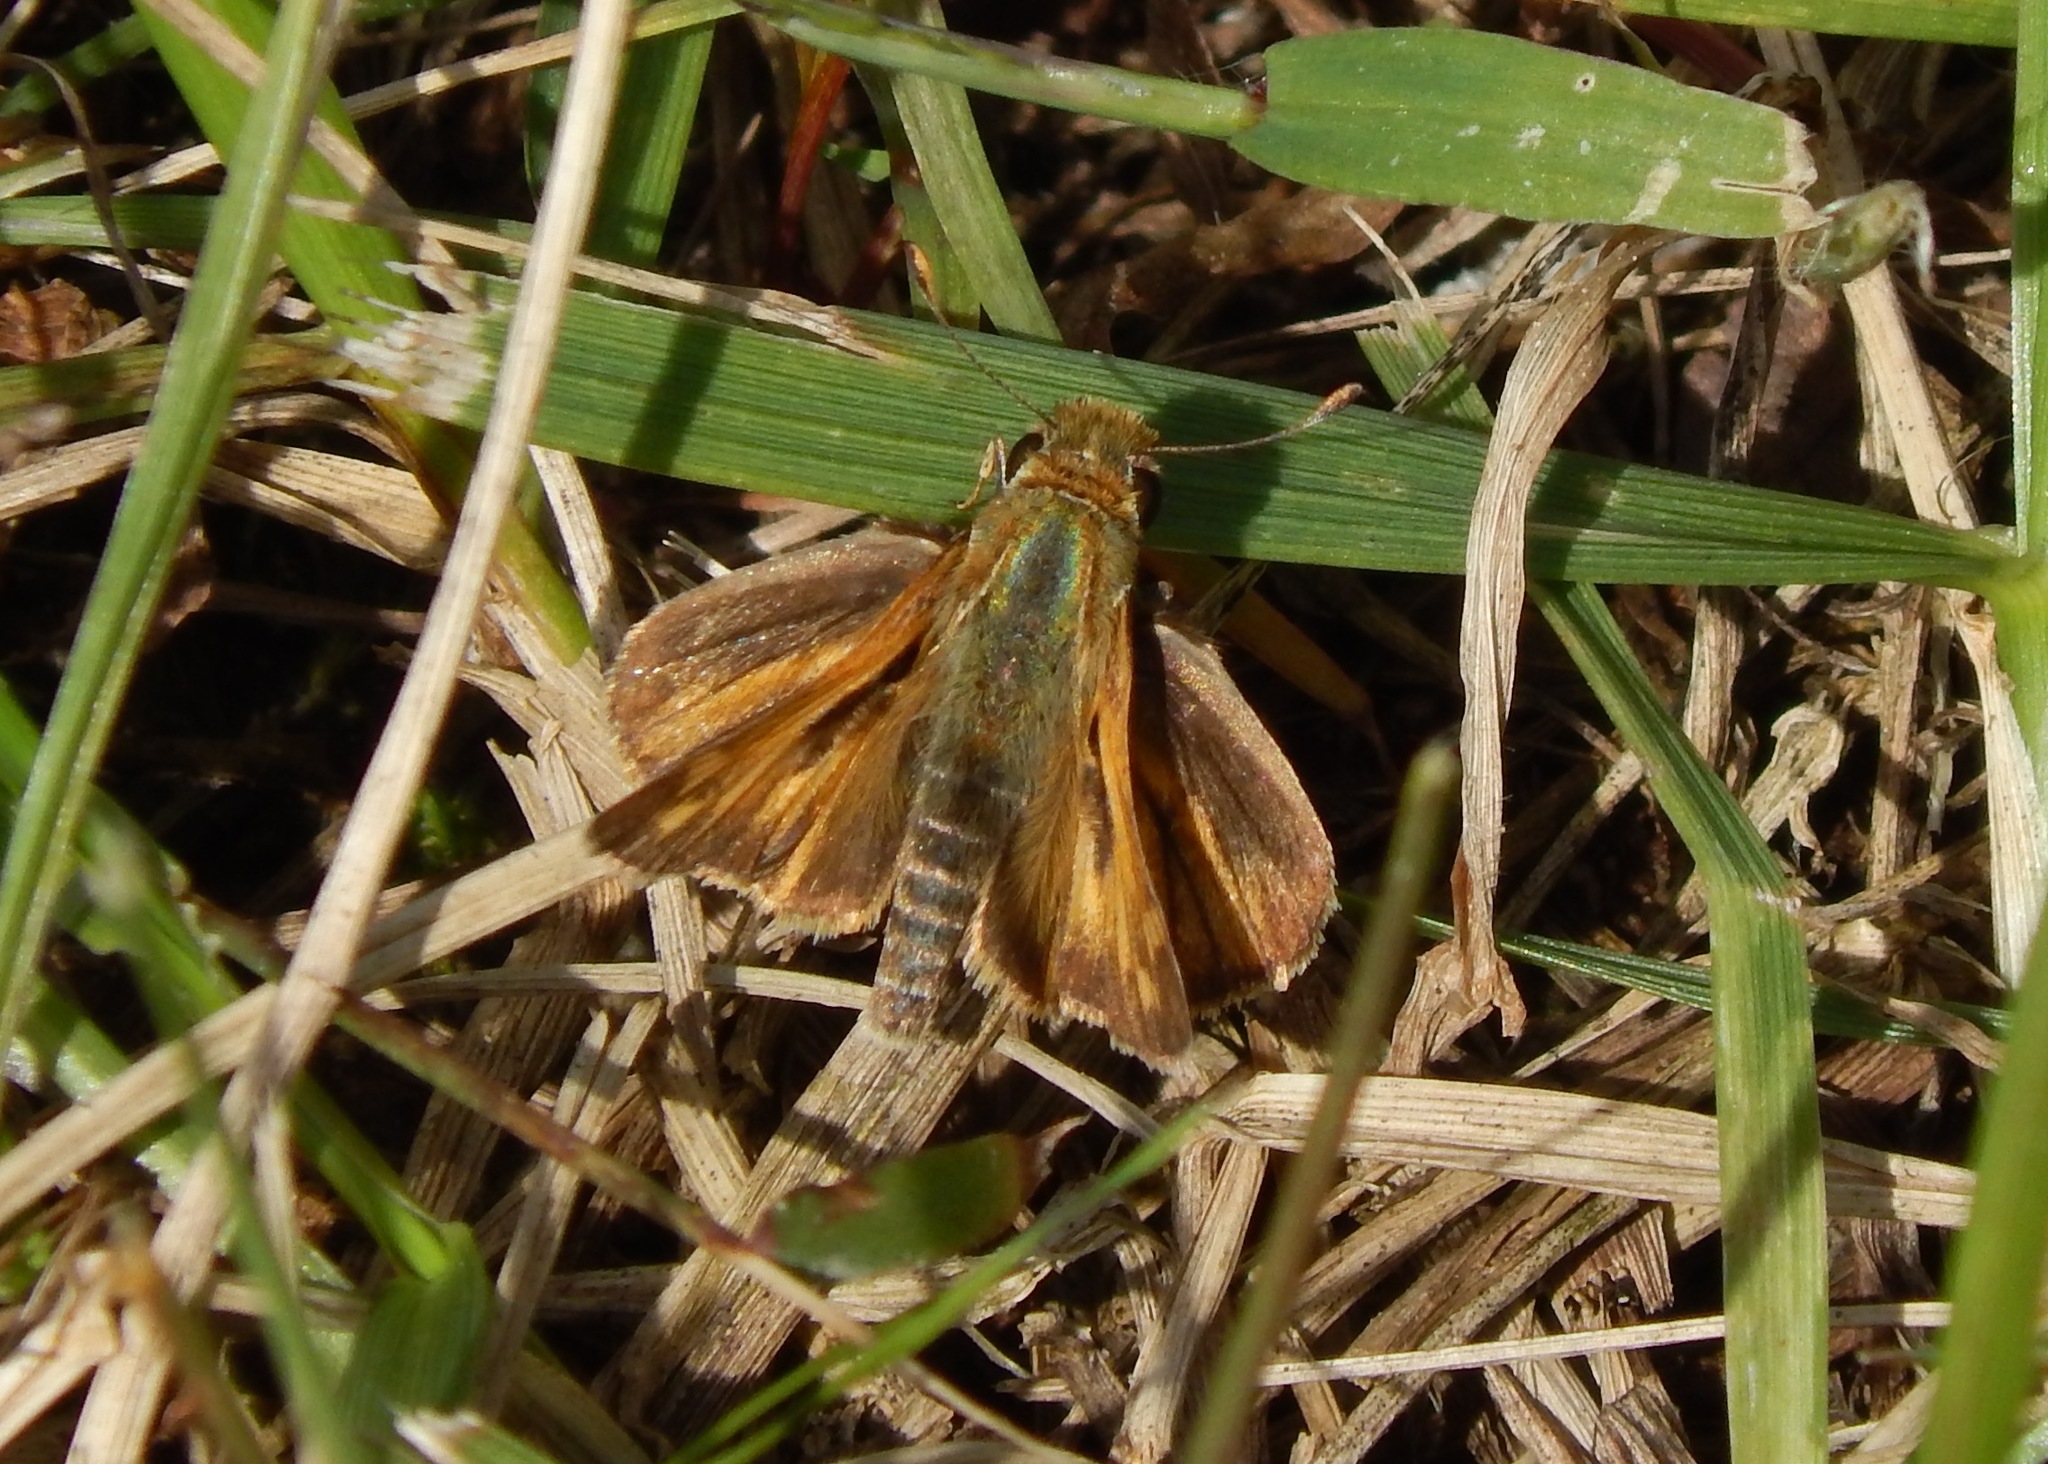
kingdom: Animalia
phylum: Arthropoda
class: Insecta
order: Lepidoptera
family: Hesperiidae
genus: Atalopedes
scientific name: Atalopedes
